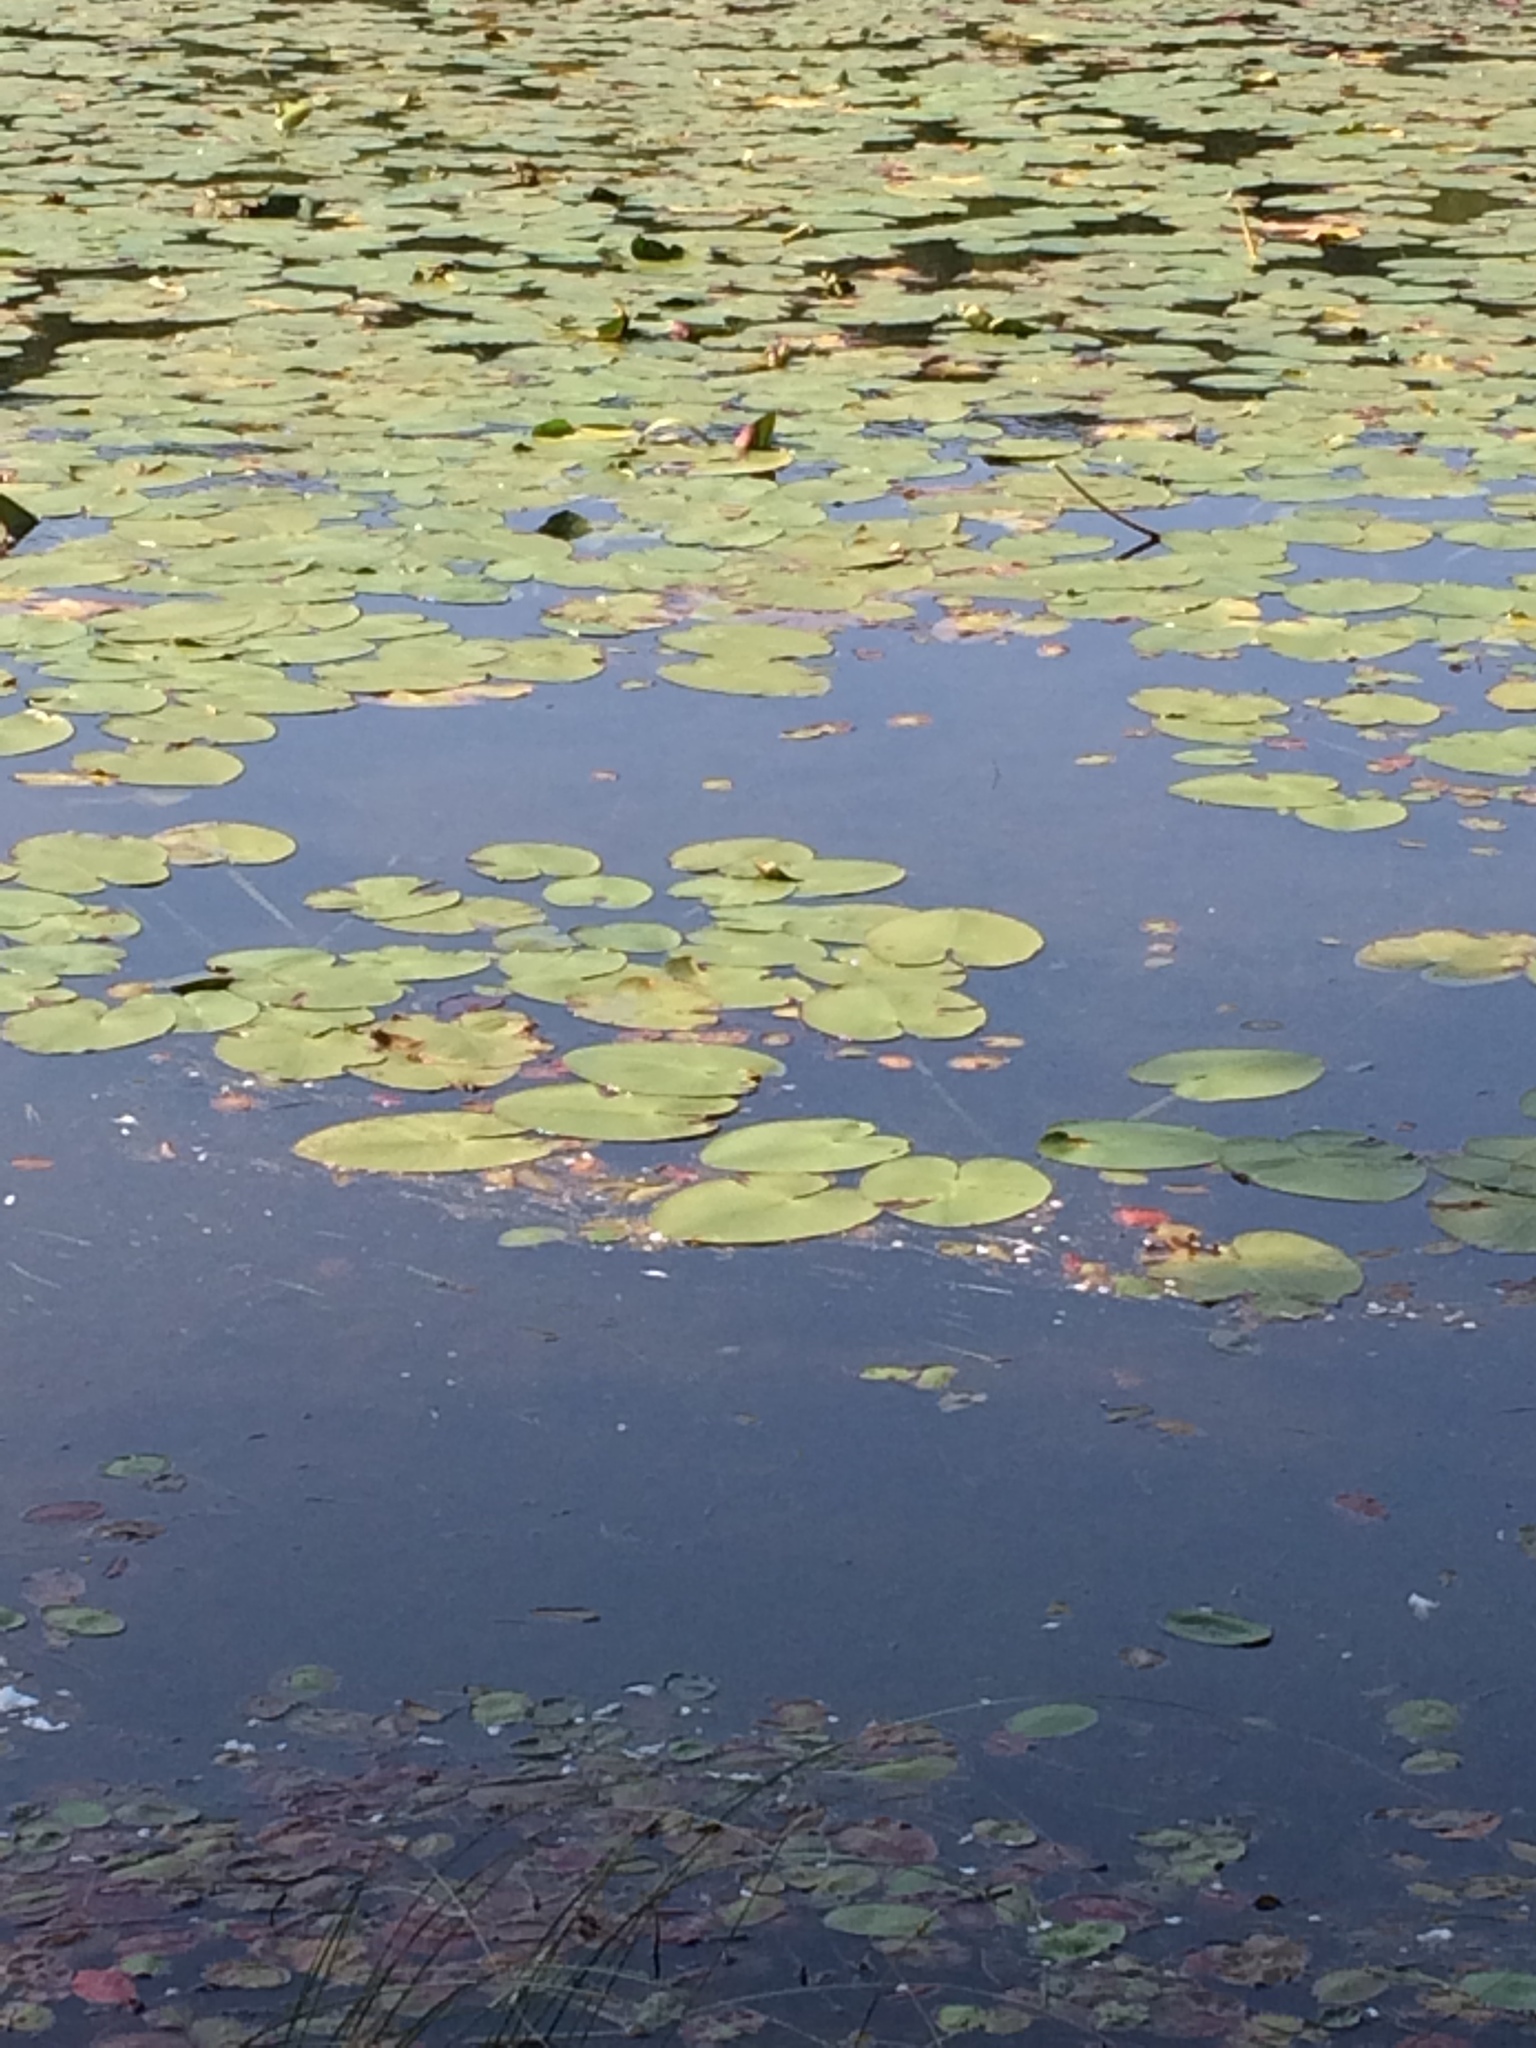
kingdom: Plantae
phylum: Tracheophyta
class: Magnoliopsida
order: Nymphaeales
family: Nymphaeaceae
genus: Nuphar
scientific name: Nuphar variegata
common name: Beaver-root
